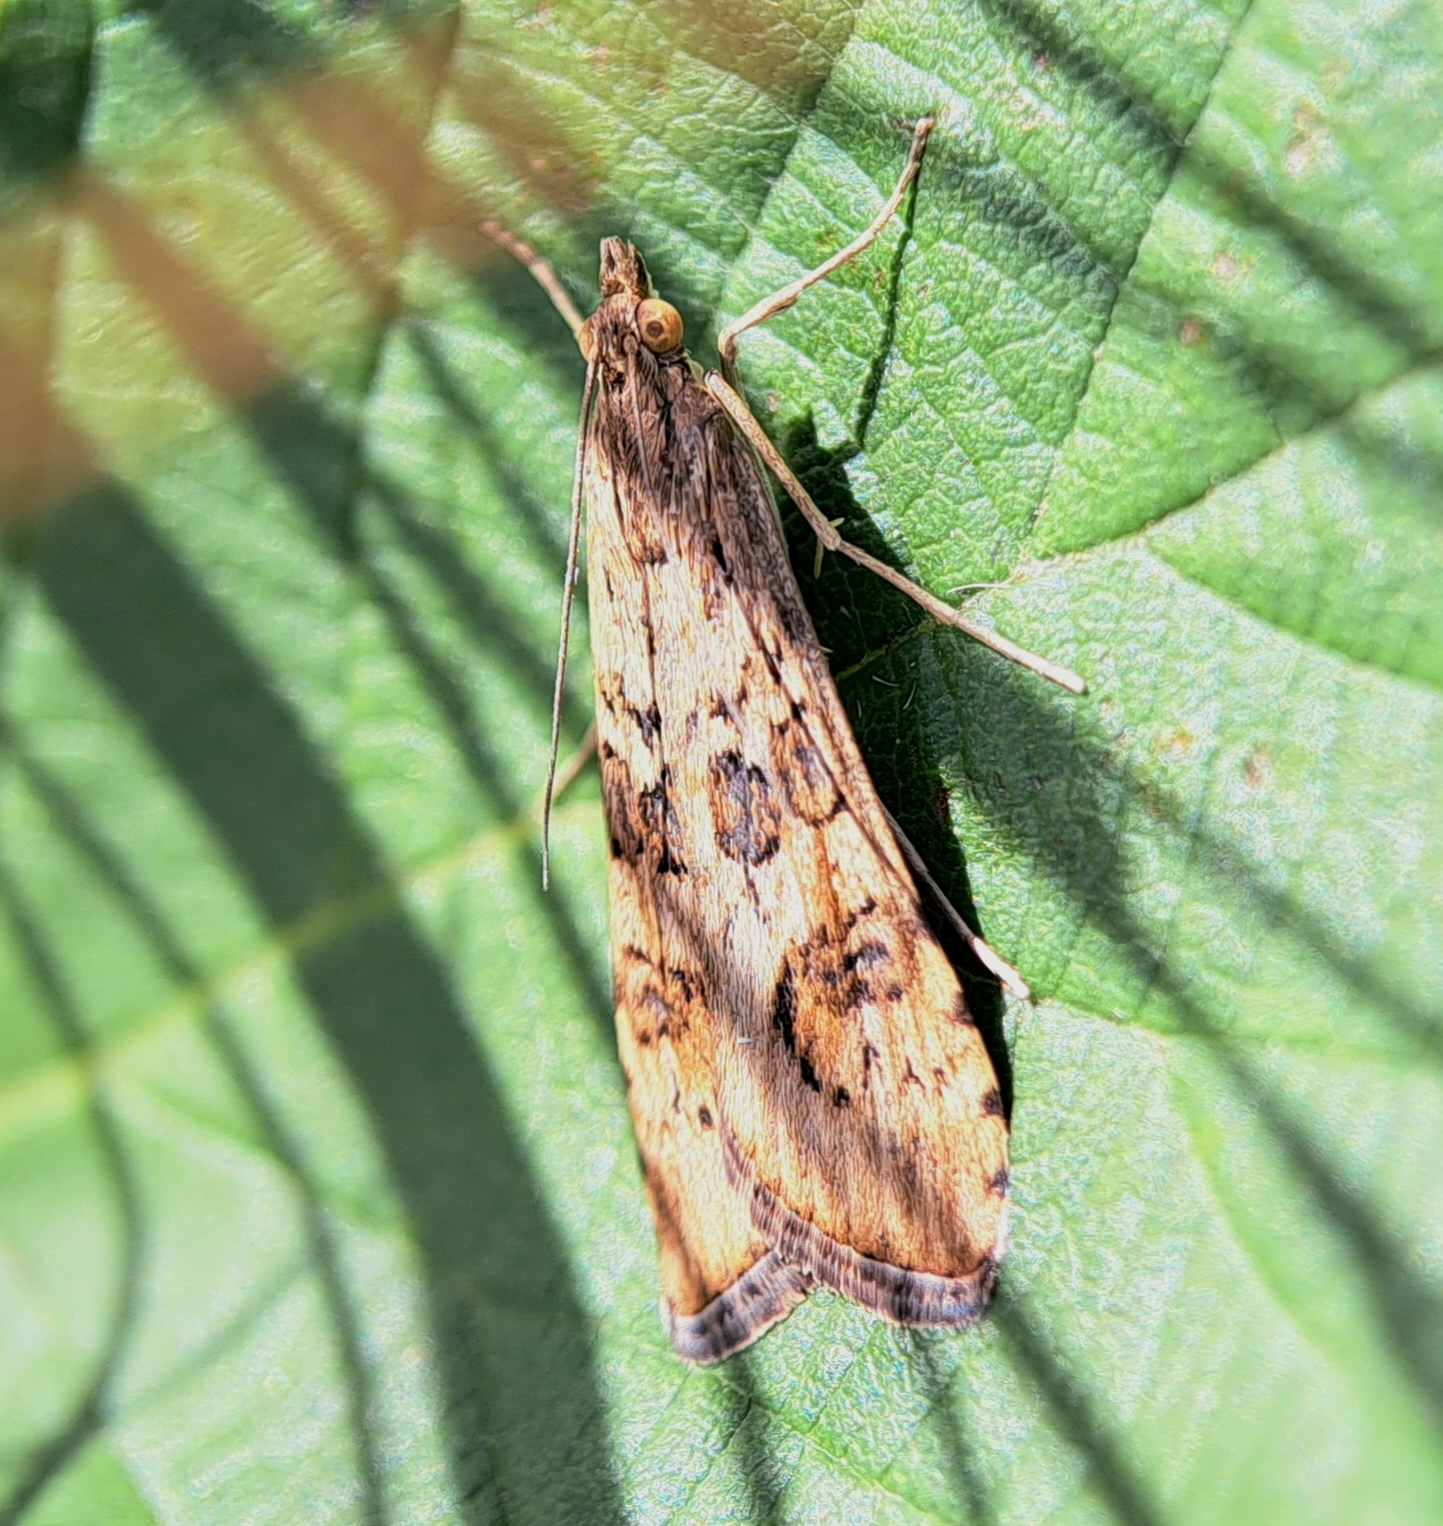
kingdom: Animalia
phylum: Arthropoda
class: Insecta
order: Lepidoptera
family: Crambidae
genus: Nomophila
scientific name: Nomophila noctuella
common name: Rush veneer
